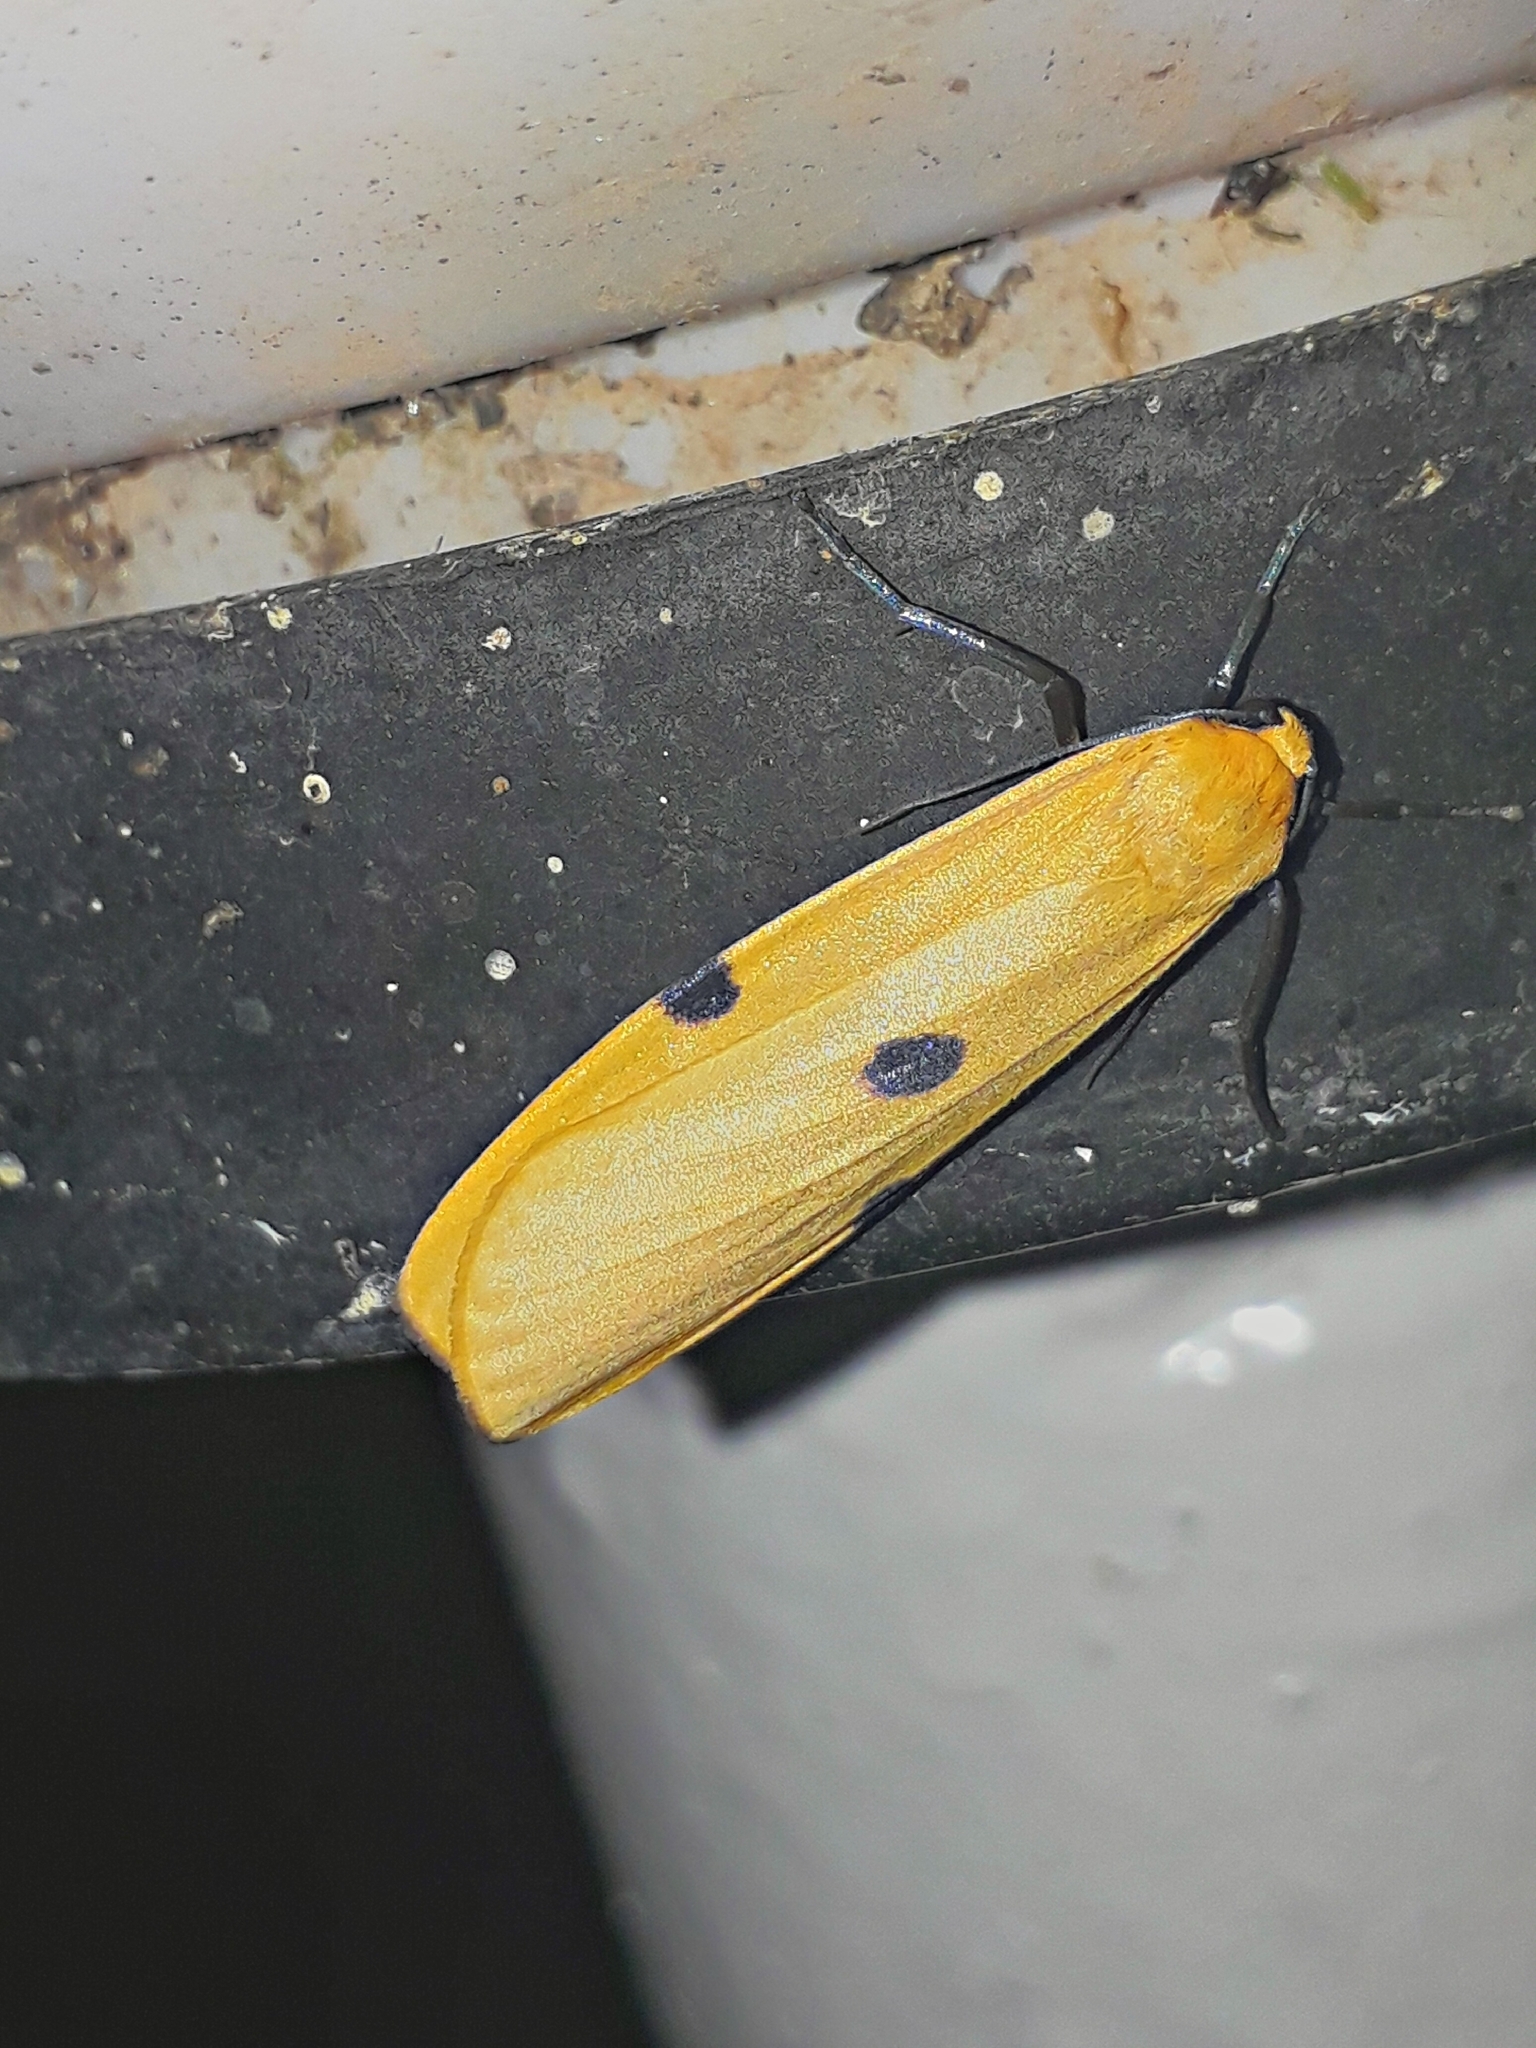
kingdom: Animalia
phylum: Arthropoda
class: Insecta
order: Lepidoptera
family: Erebidae
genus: Lithosia
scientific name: Lithosia quadra
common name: Four-spotted footman
